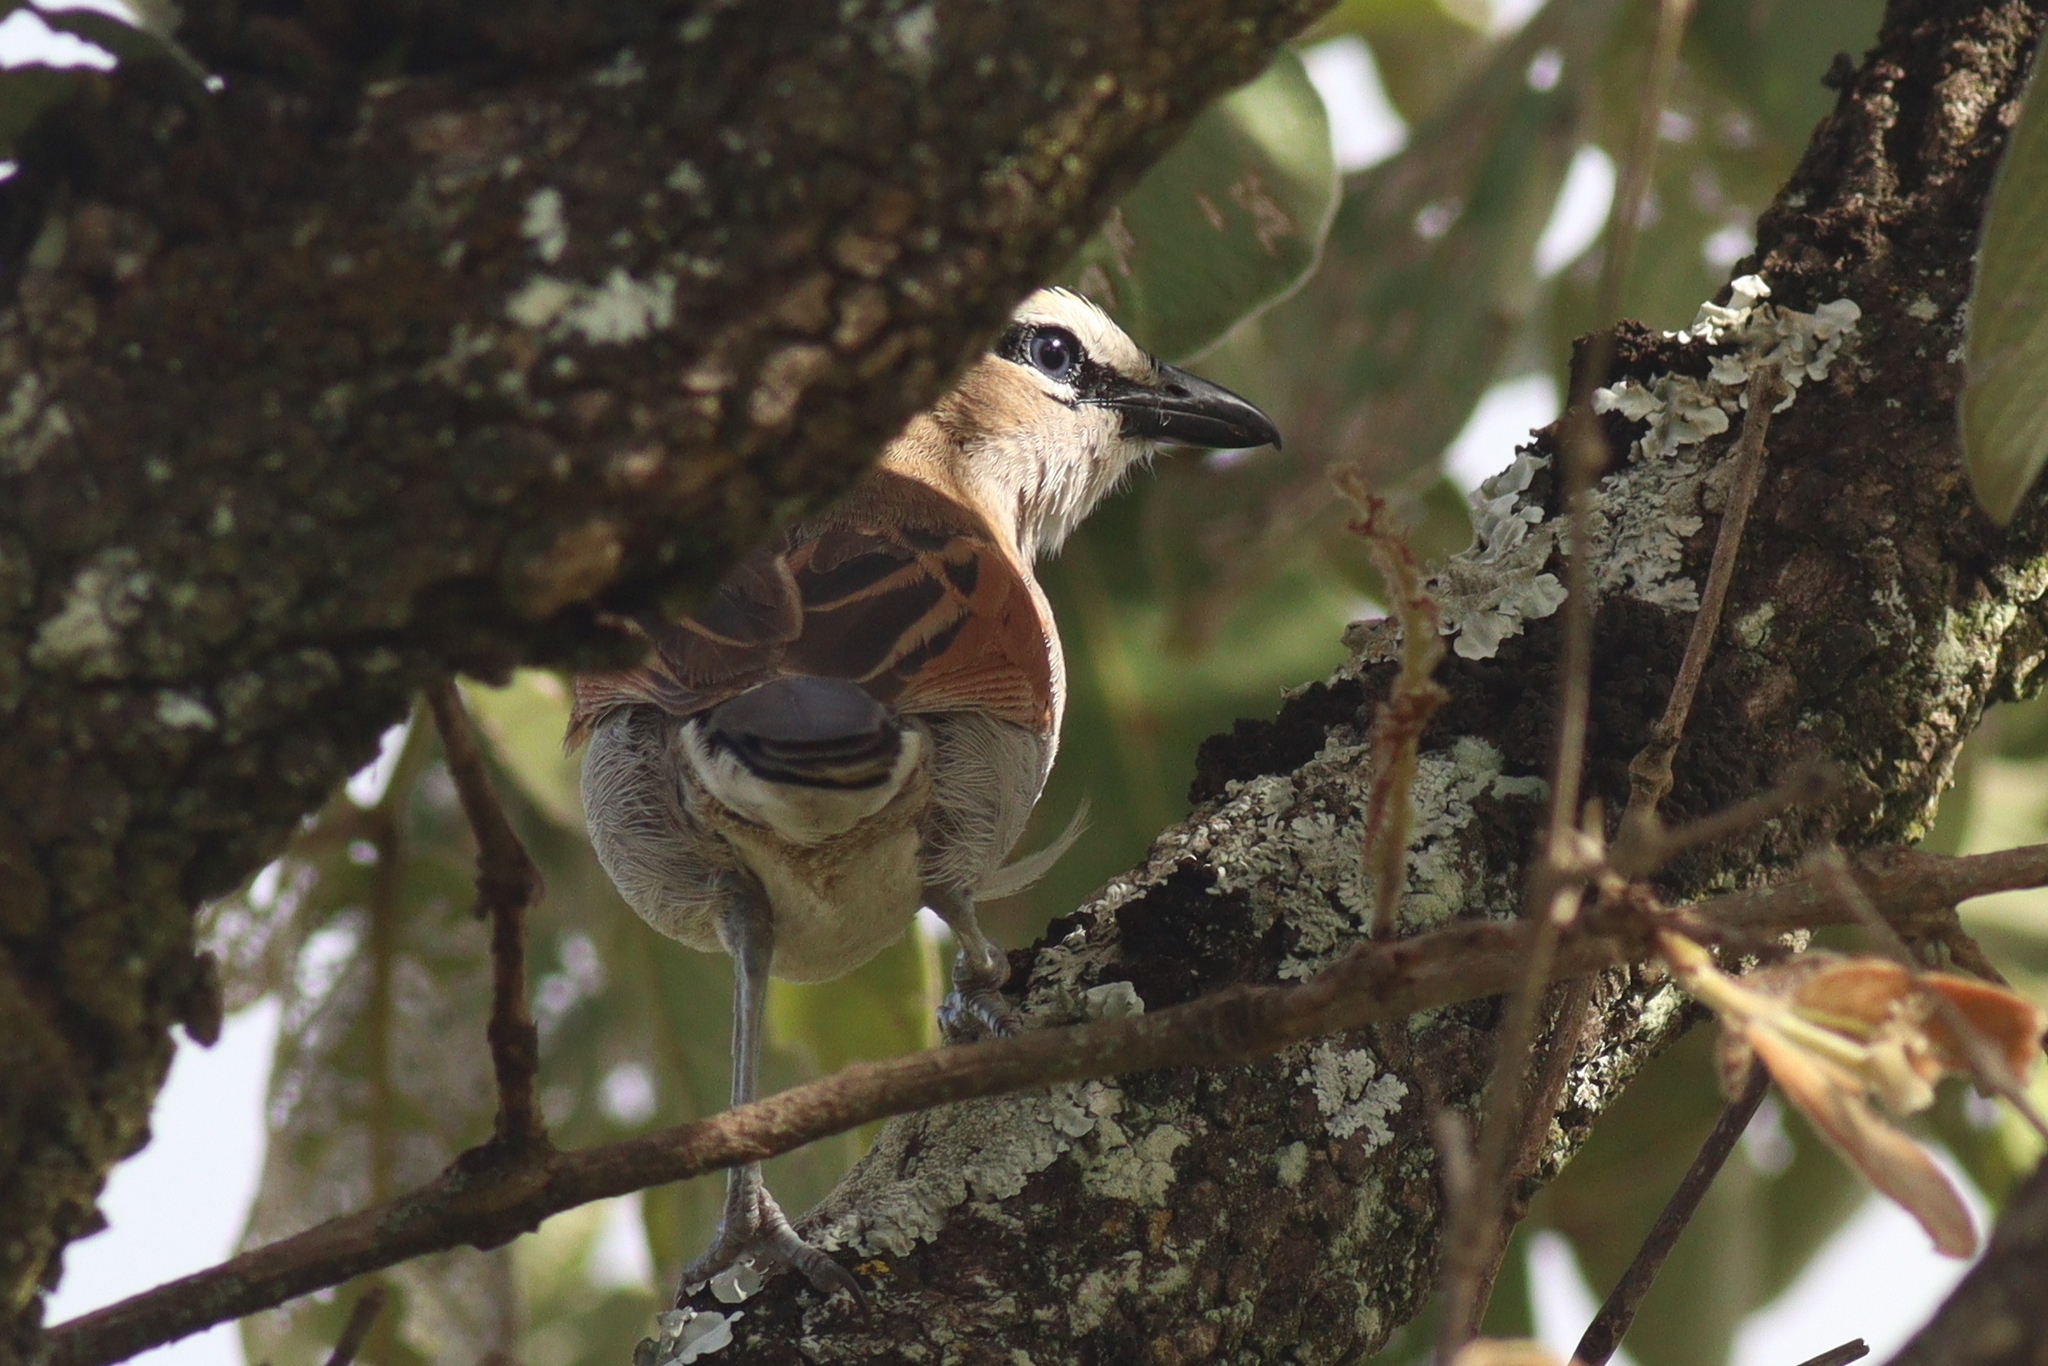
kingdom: Animalia
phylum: Chordata
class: Aves
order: Passeriformes
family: Malaconotidae
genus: Tchagra
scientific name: Tchagra senegalus
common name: Black-crowned tchagra
